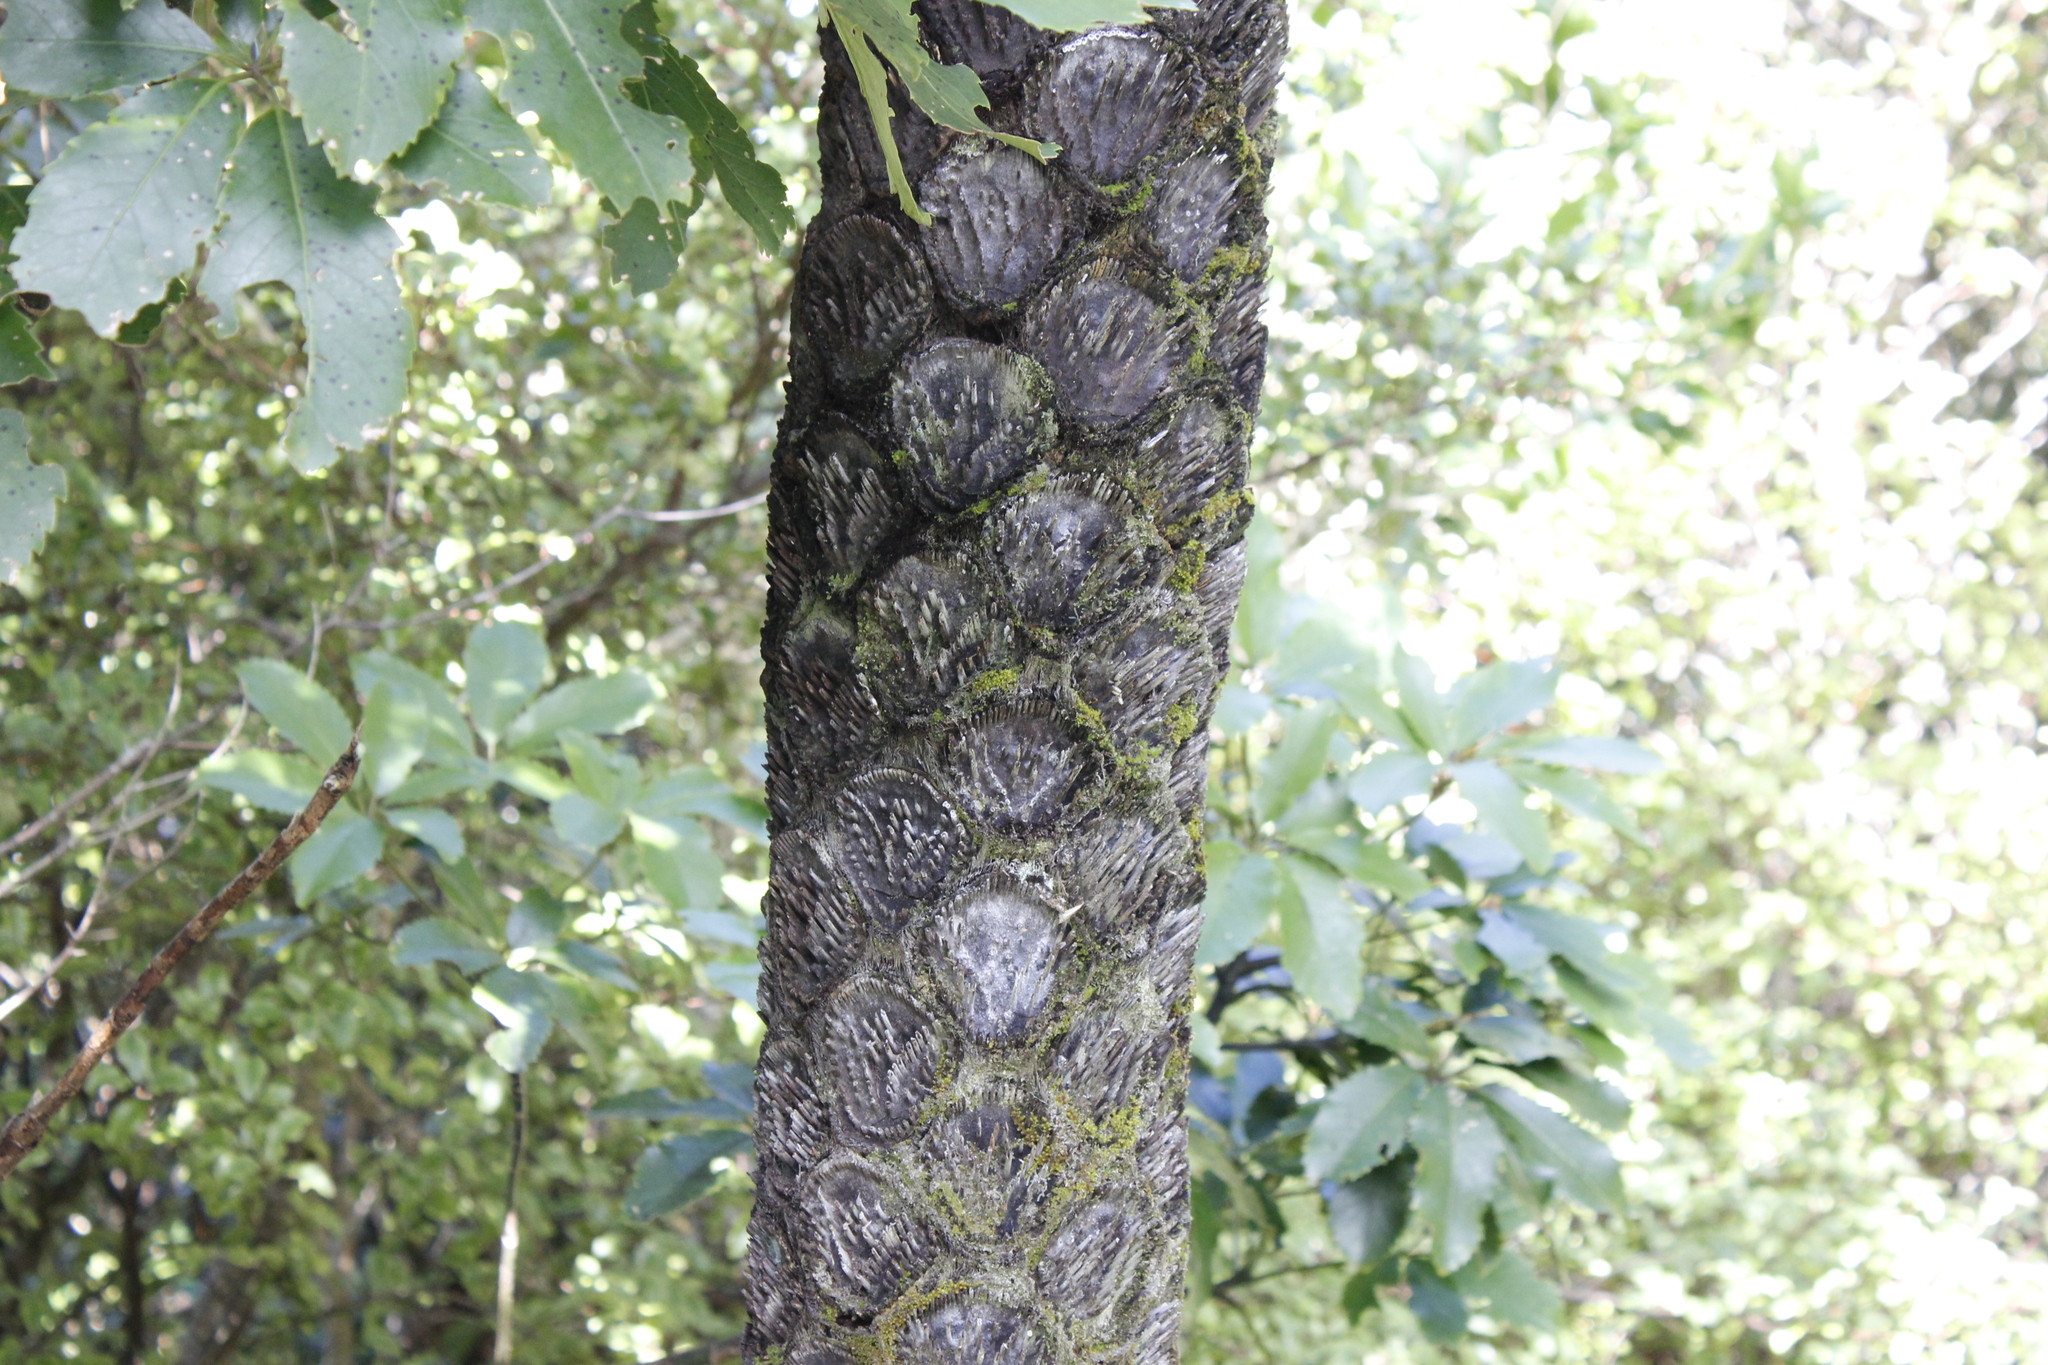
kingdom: Plantae
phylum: Tracheophyta
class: Polypodiopsida
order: Cyatheales
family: Cyatheaceae
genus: Sphaeropteris
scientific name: Sphaeropteris medullaris
